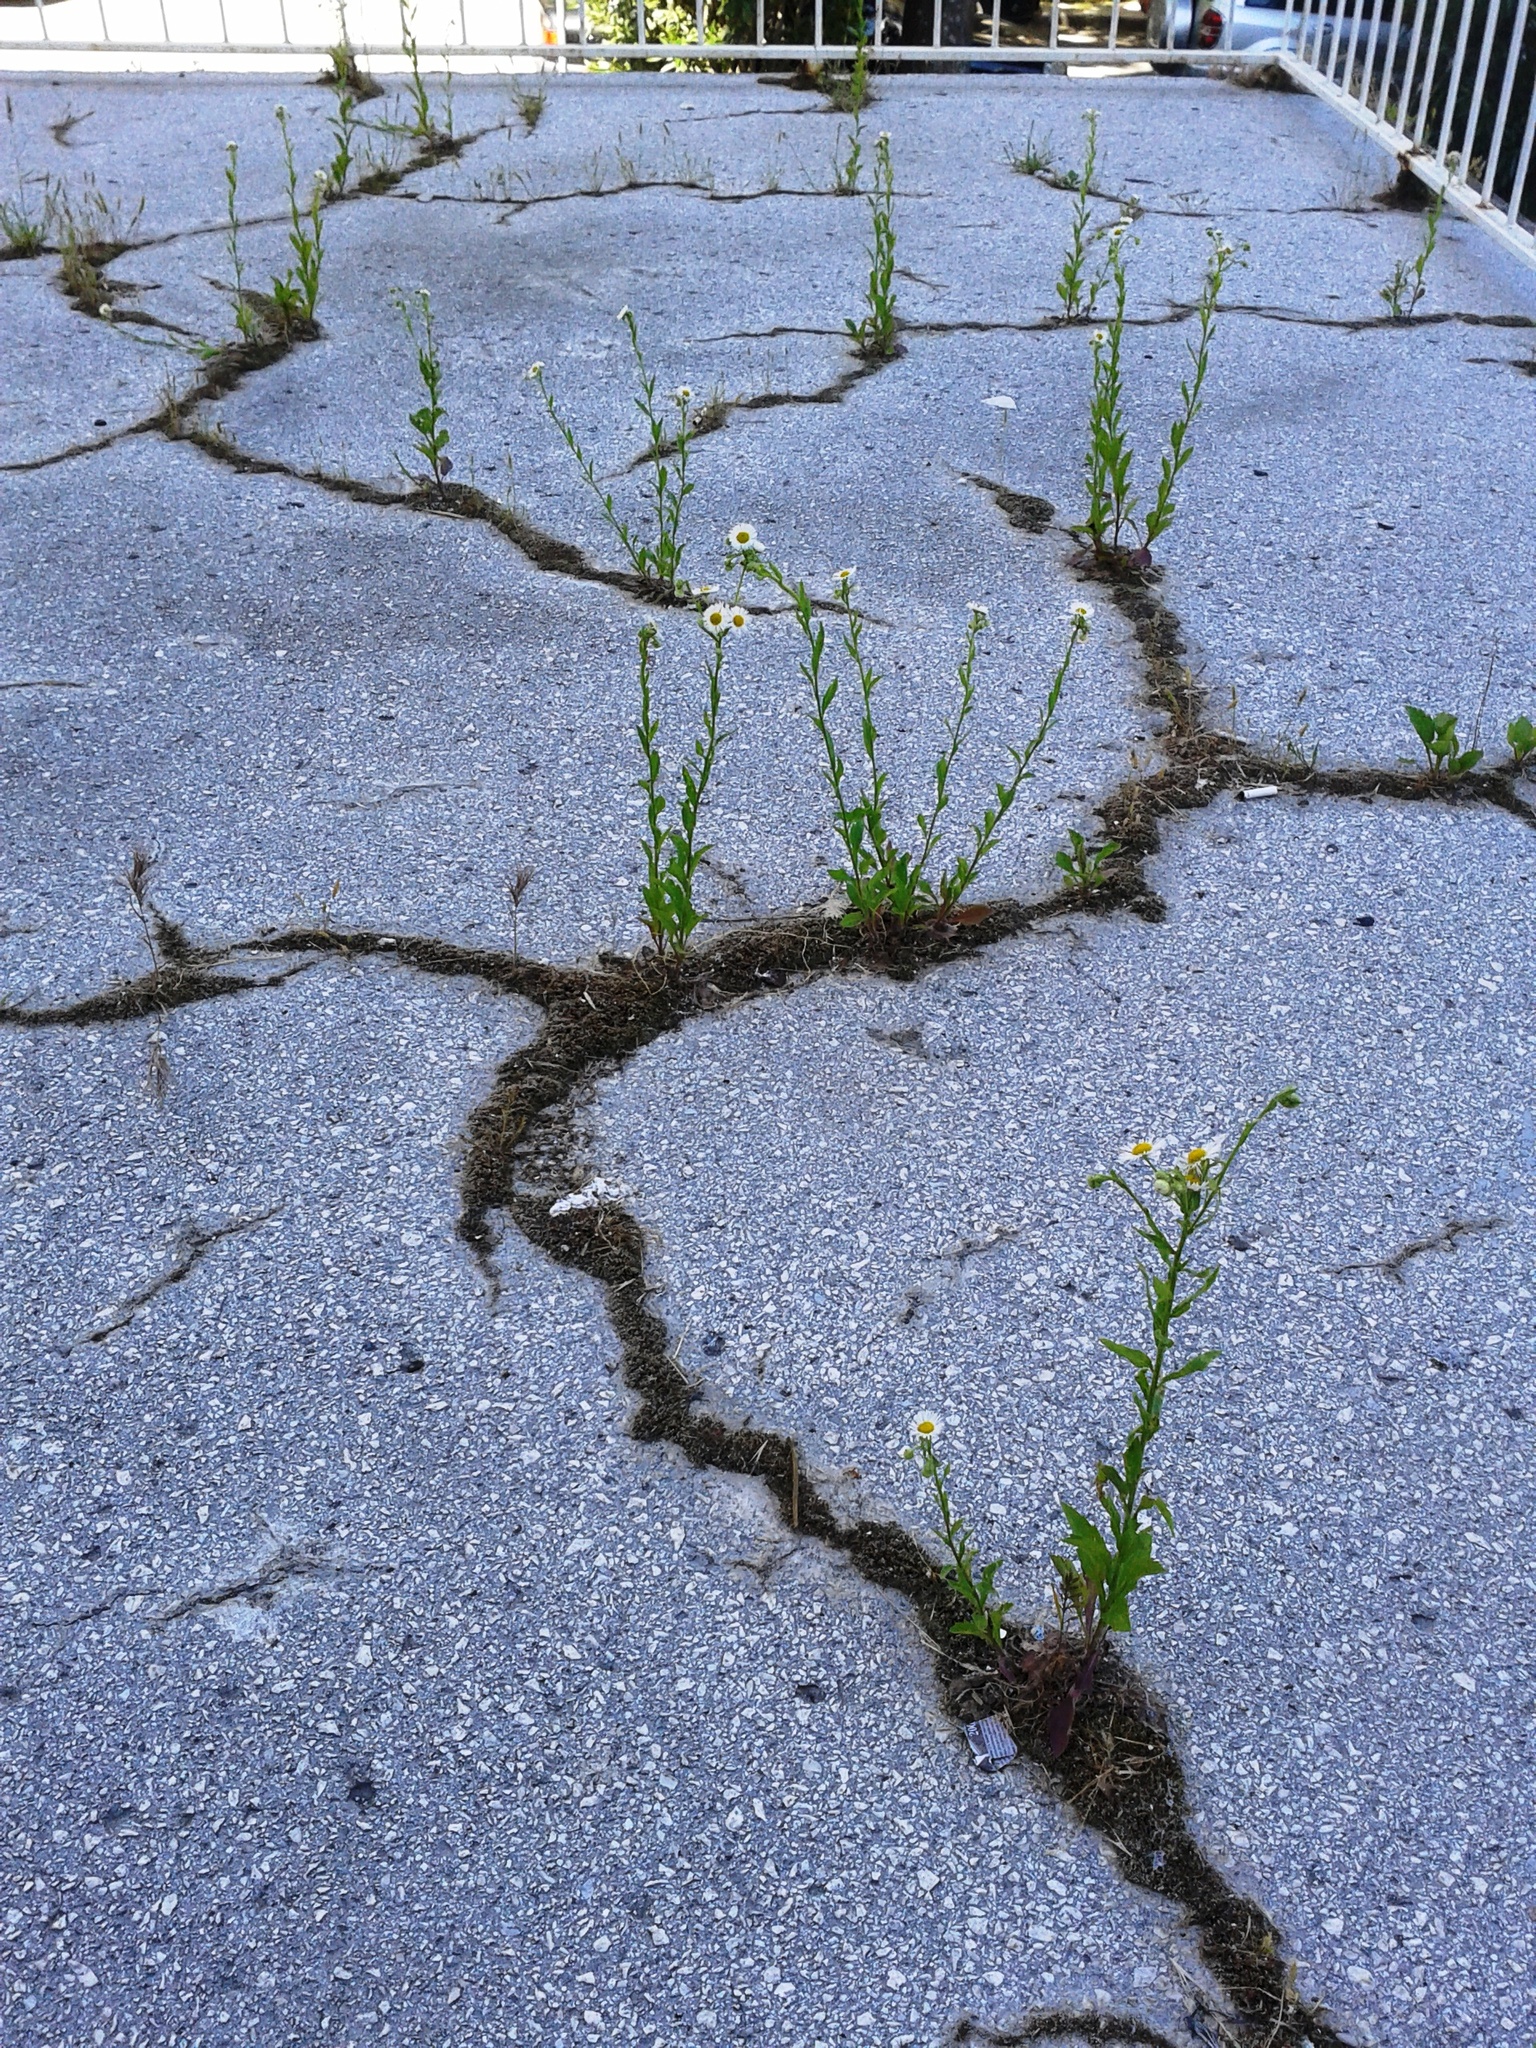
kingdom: Plantae
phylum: Tracheophyta
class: Magnoliopsida
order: Asterales
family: Asteraceae
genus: Erigeron
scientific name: Erigeron annuus
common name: Tall fleabane
